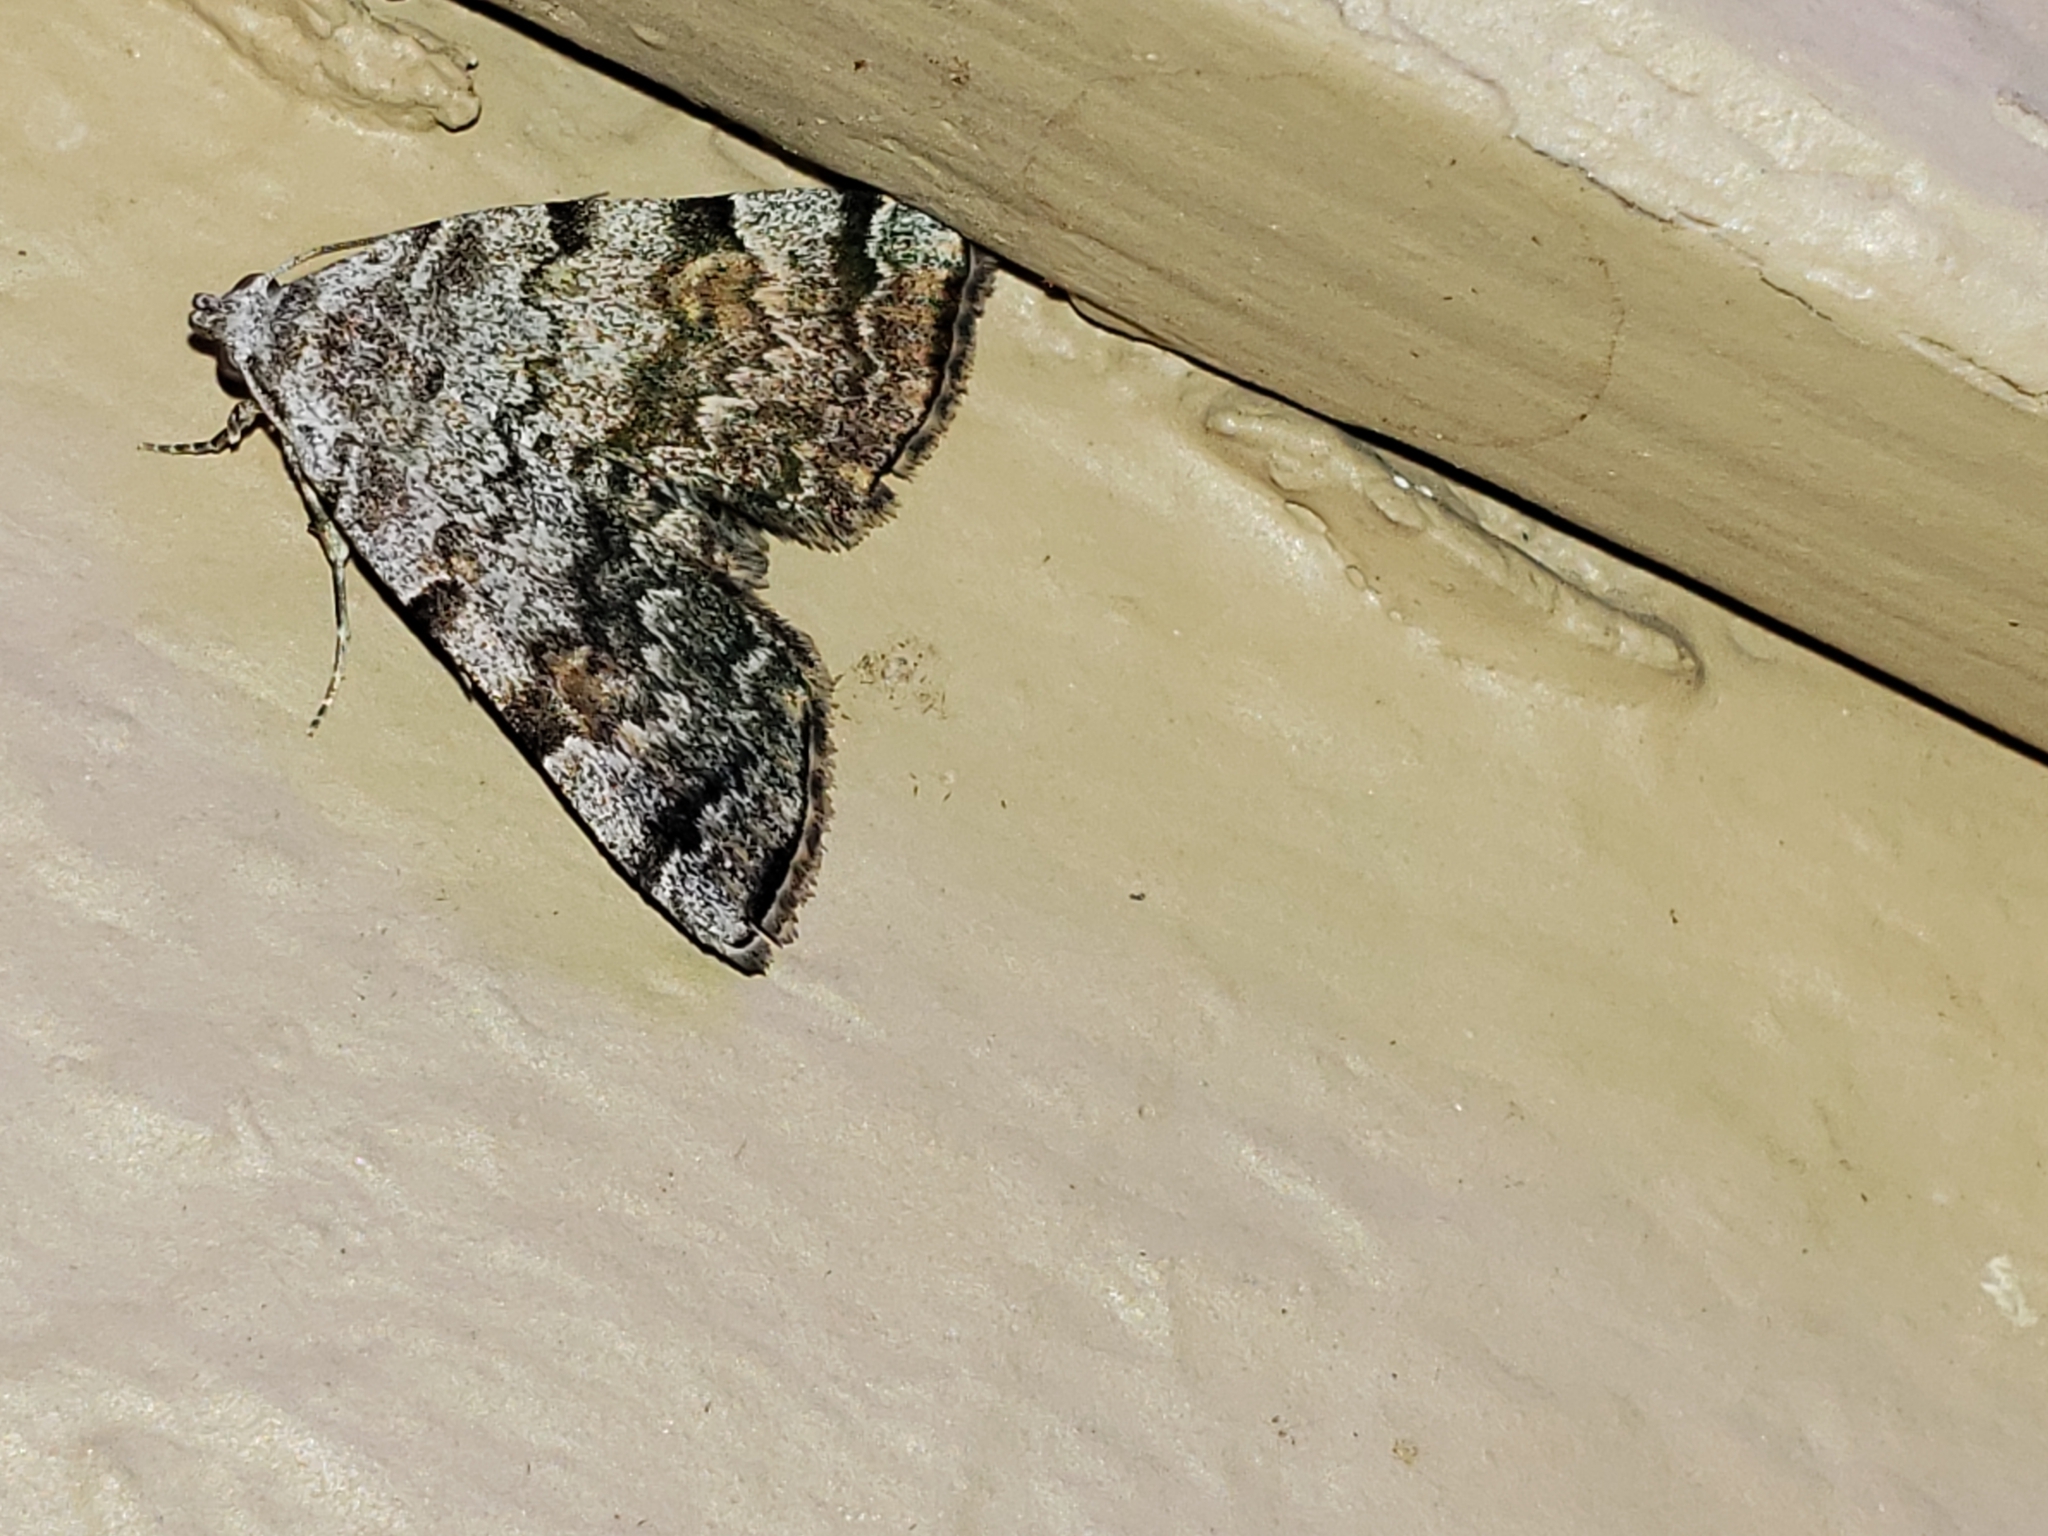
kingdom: Animalia
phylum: Arthropoda
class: Insecta
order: Lepidoptera
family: Erebidae
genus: Idia
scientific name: Idia americalis
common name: American idia moth
